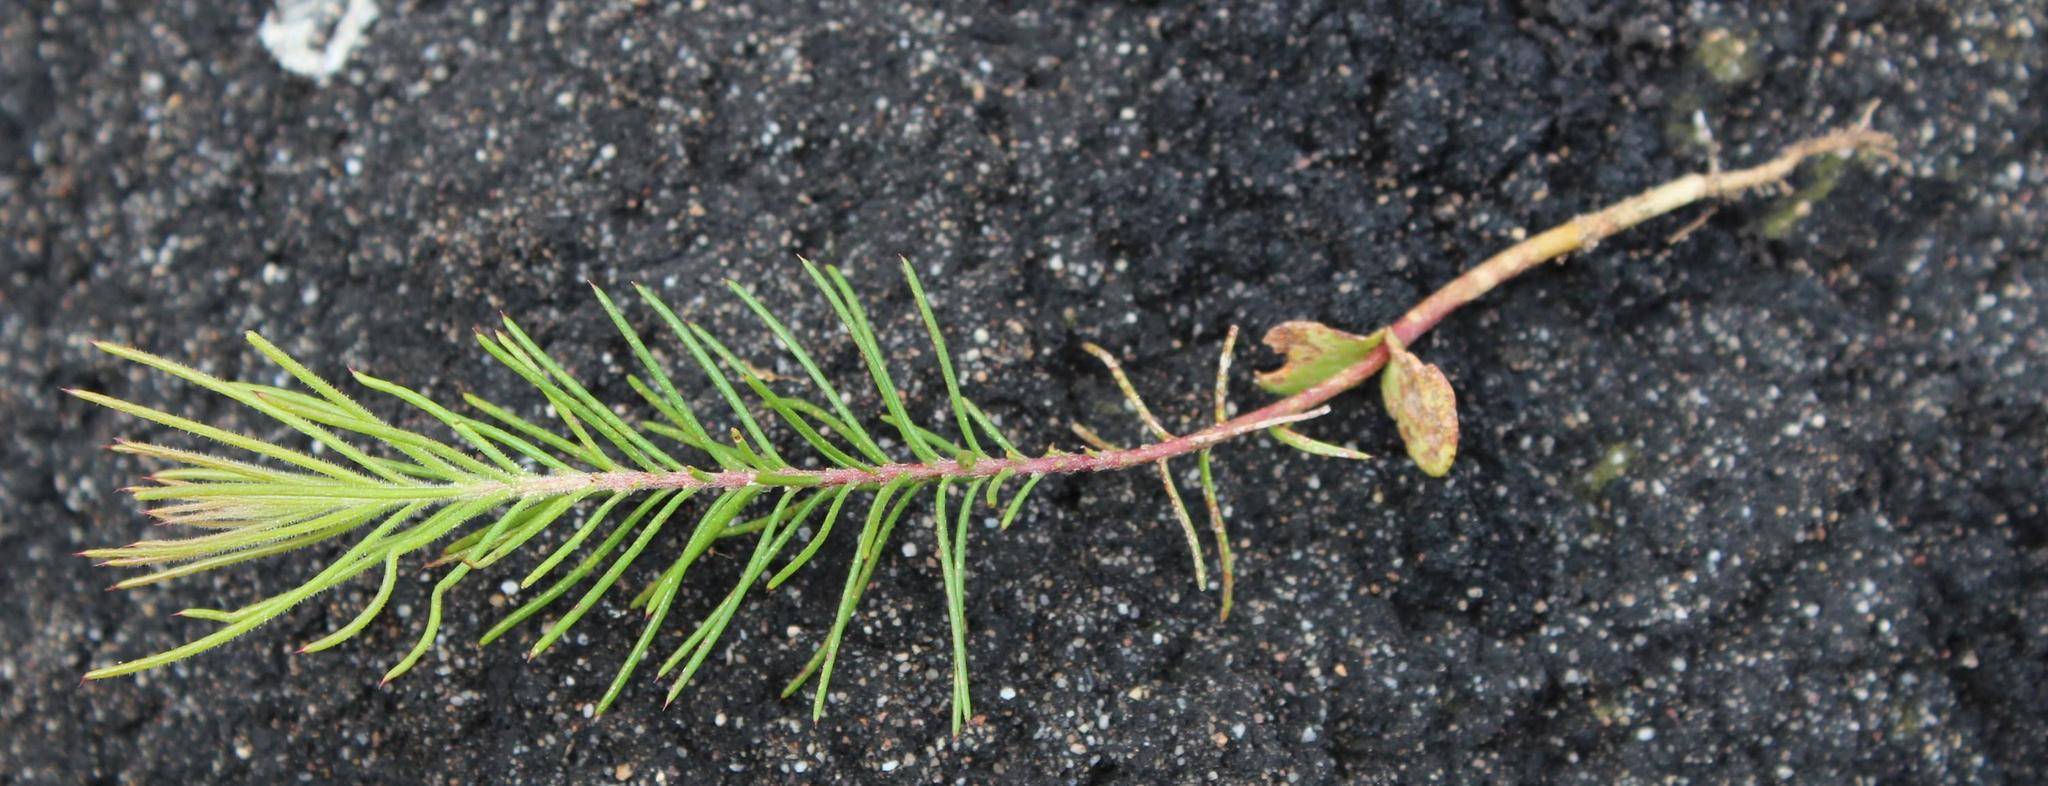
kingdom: Plantae
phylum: Tracheophyta
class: Magnoliopsida
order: Proteales
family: Proteaceae
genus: Hakea
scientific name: Hakea sericea
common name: Needle bush
